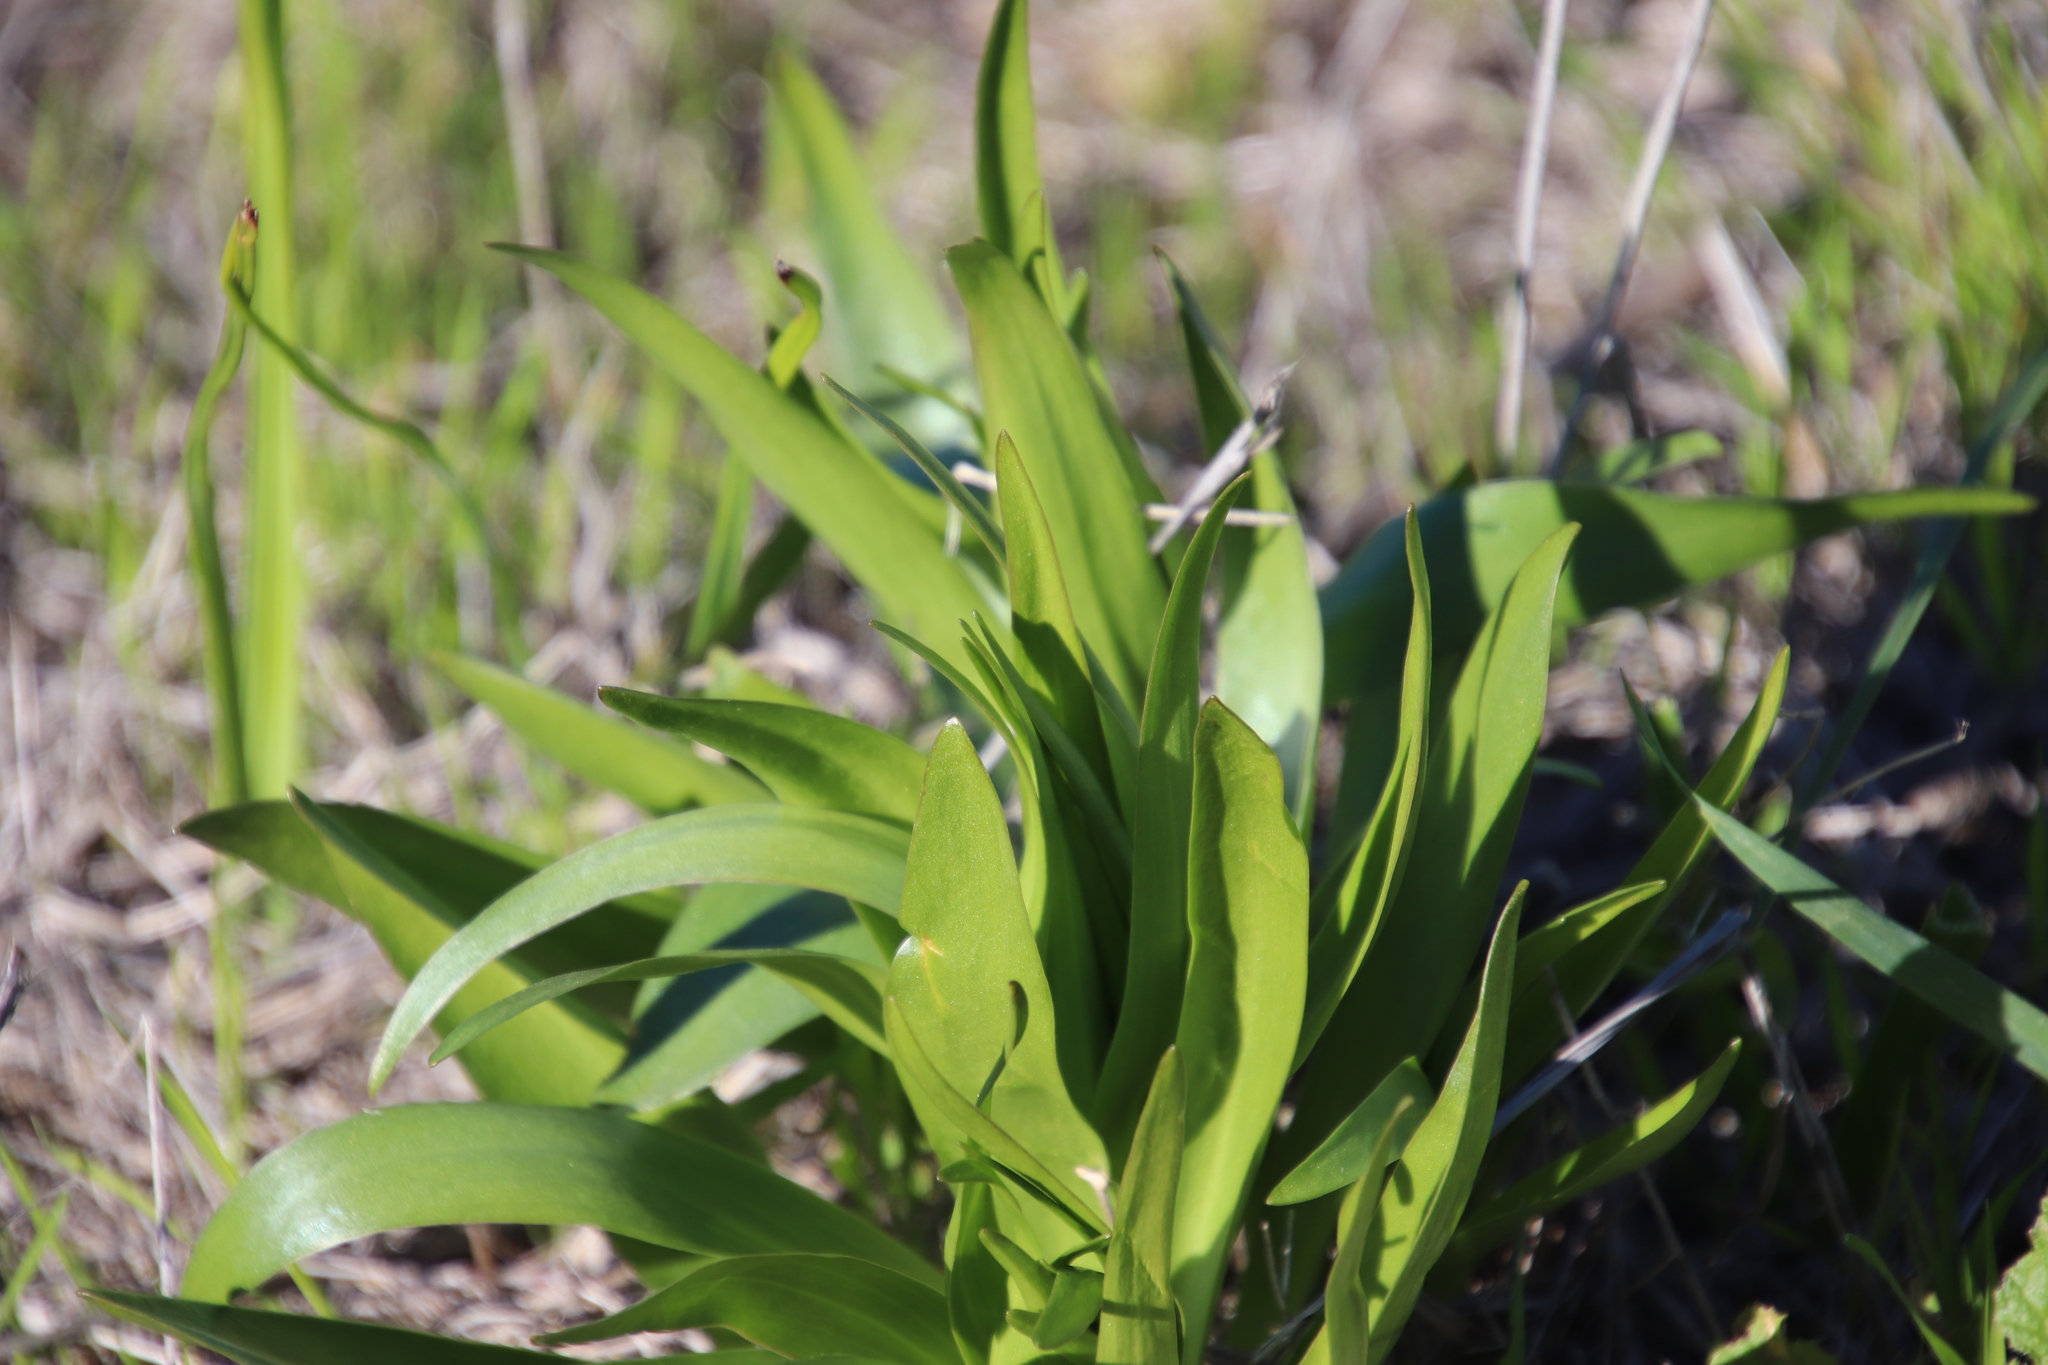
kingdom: Plantae
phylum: Tracheophyta
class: Liliopsida
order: Liliales
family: Liliaceae
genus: Fritillaria
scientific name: Fritillaria biflora
